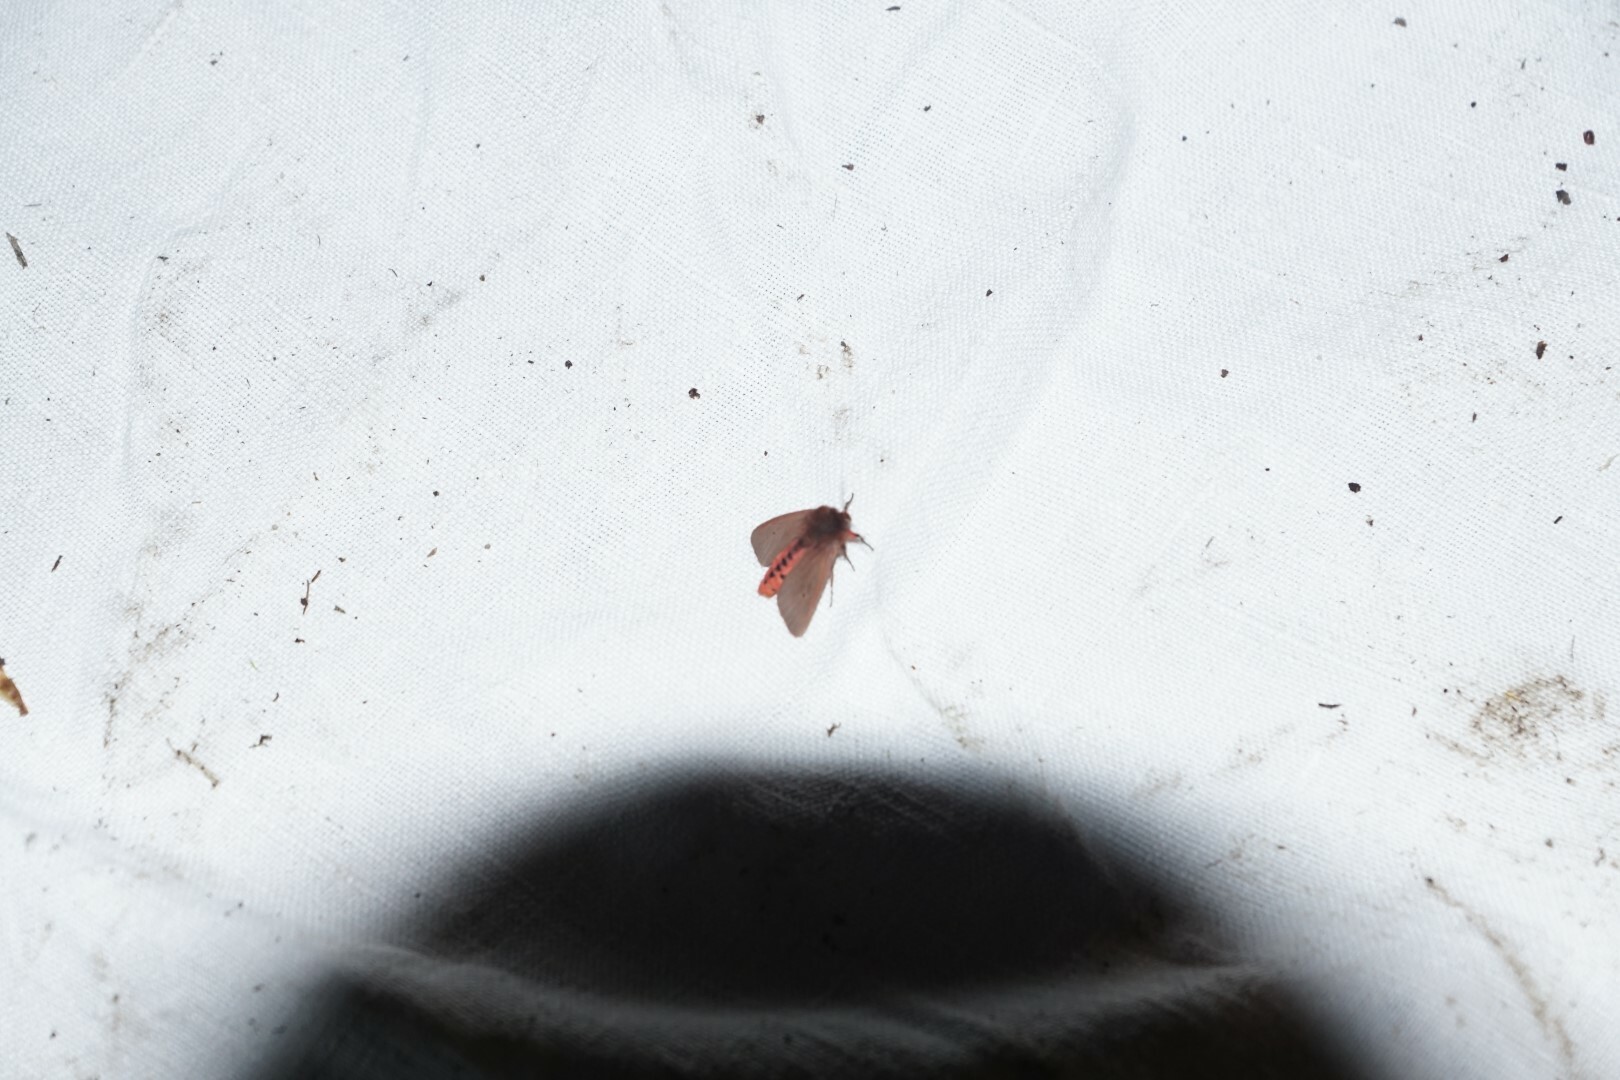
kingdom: Animalia
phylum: Arthropoda
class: Insecta
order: Lepidoptera
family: Erebidae
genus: Phragmatobia
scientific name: Phragmatobia fuliginosa
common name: Ruby tiger
